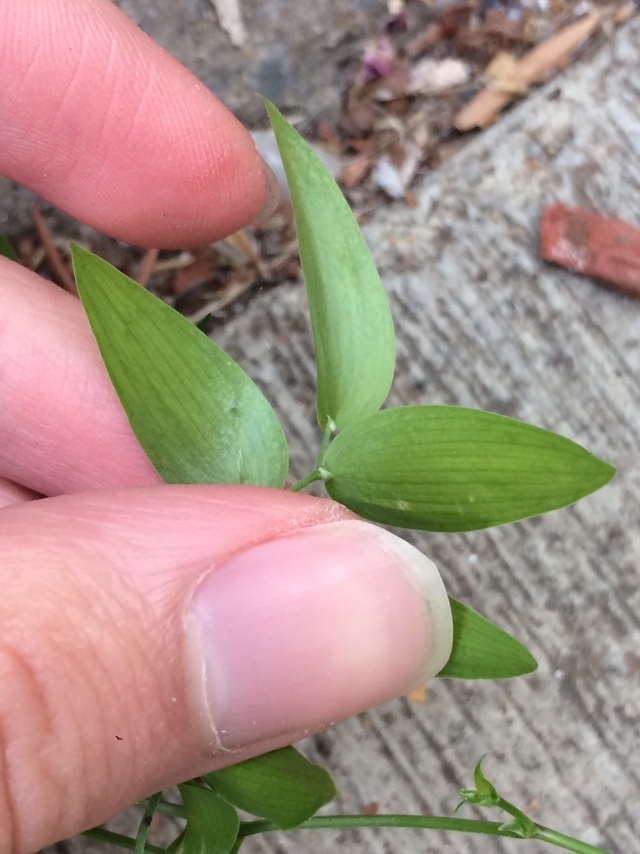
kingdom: Plantae
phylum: Tracheophyta
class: Liliopsida
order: Asparagales
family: Asparagaceae
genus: Asparagus
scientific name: Asparagus asparagoides
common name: African asparagus fern
